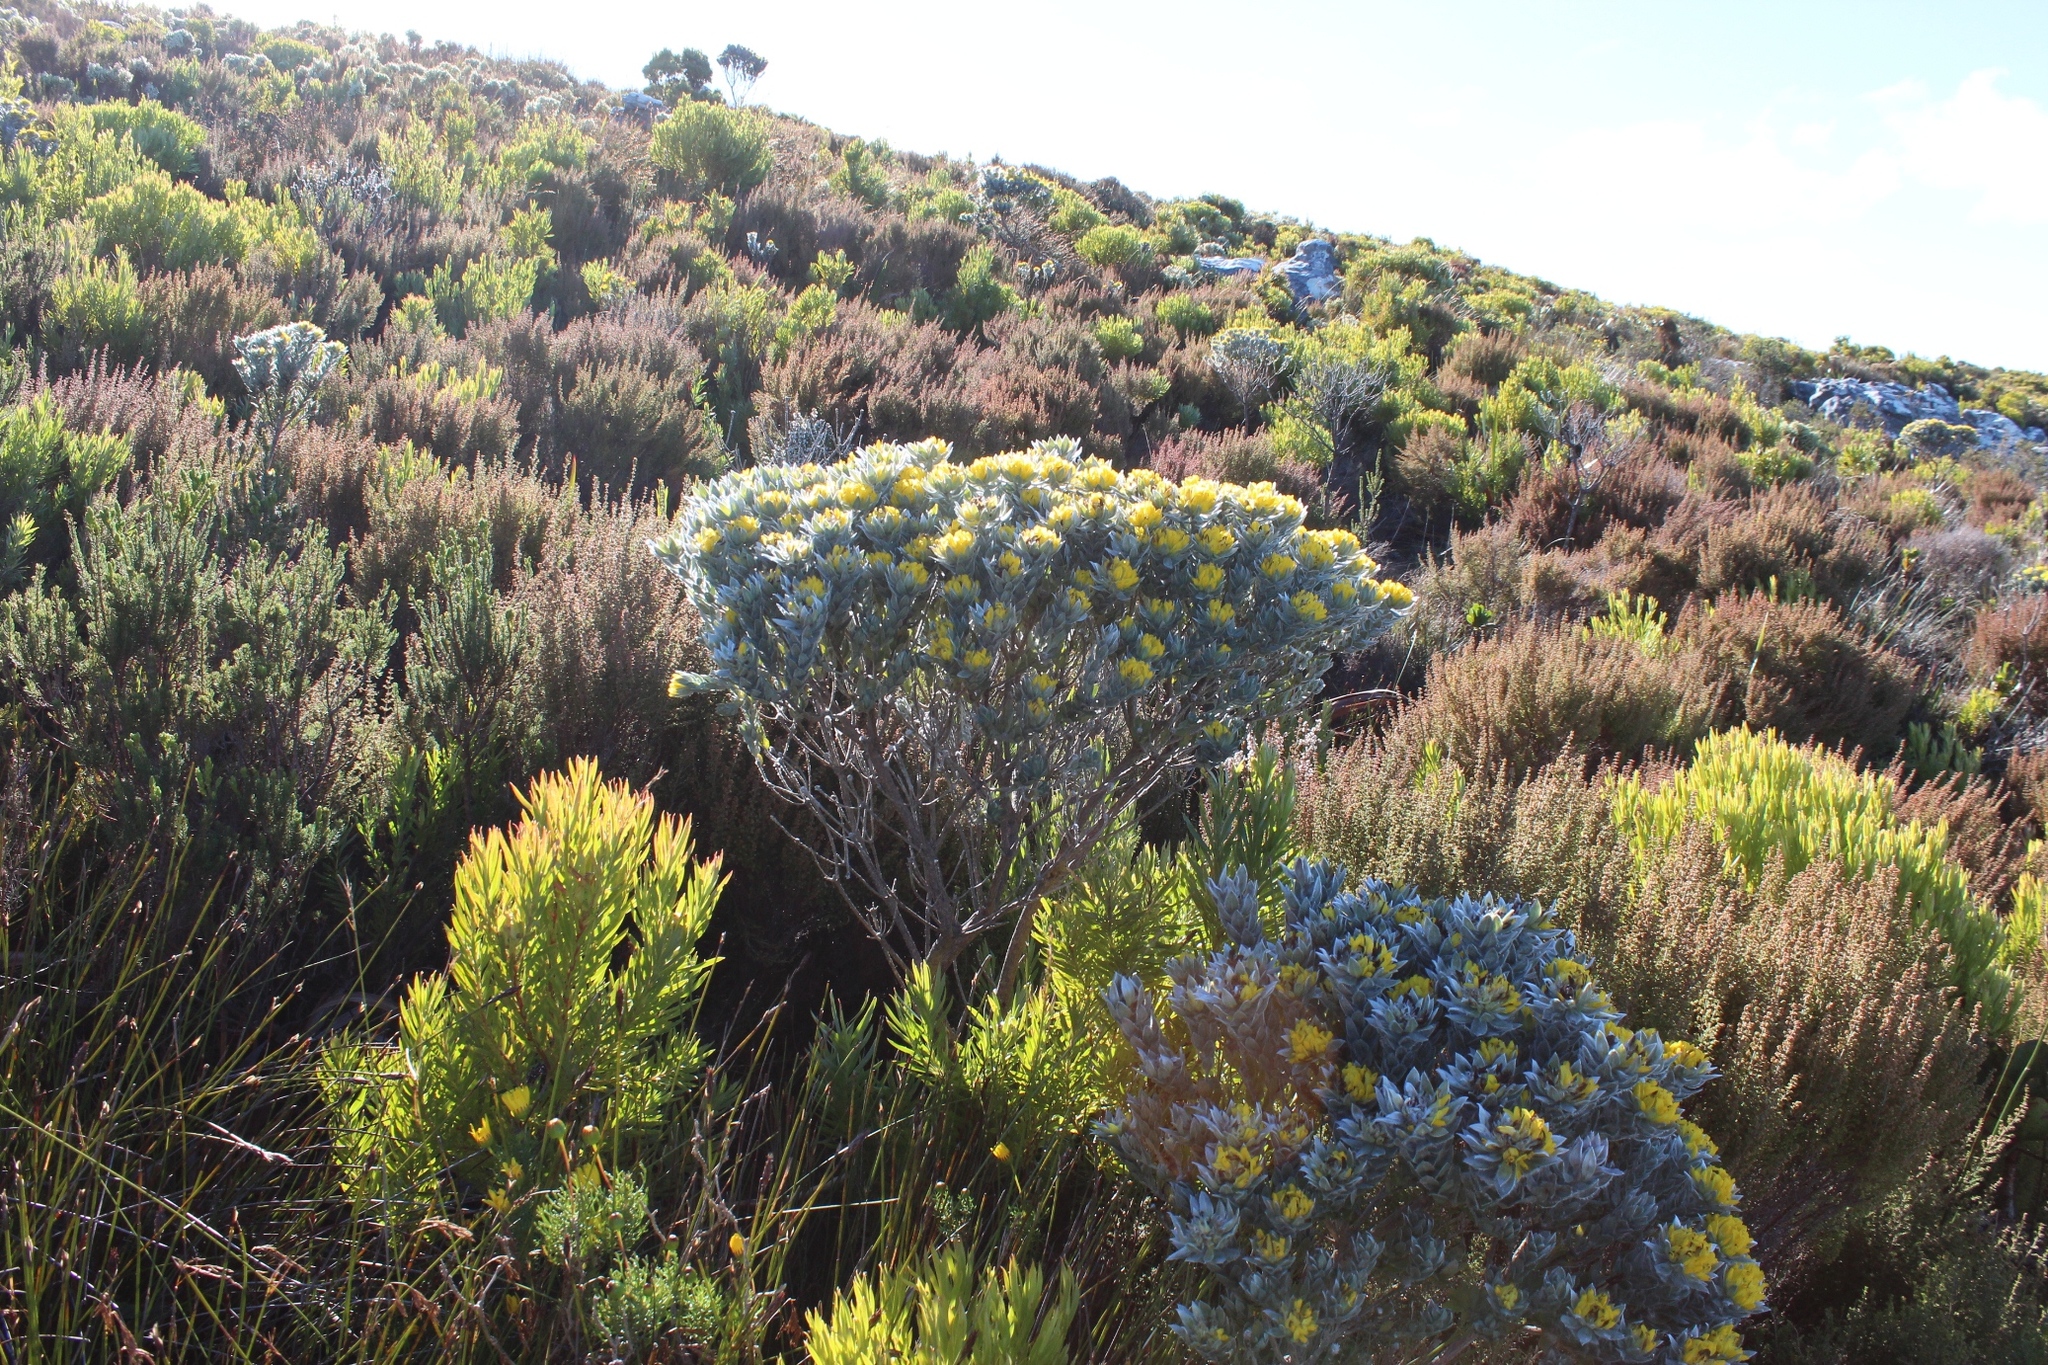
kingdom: Plantae
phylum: Tracheophyta
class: Magnoliopsida
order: Fabales
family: Fabaceae
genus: Xiphotheca
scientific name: Xiphotheca fruticosa
